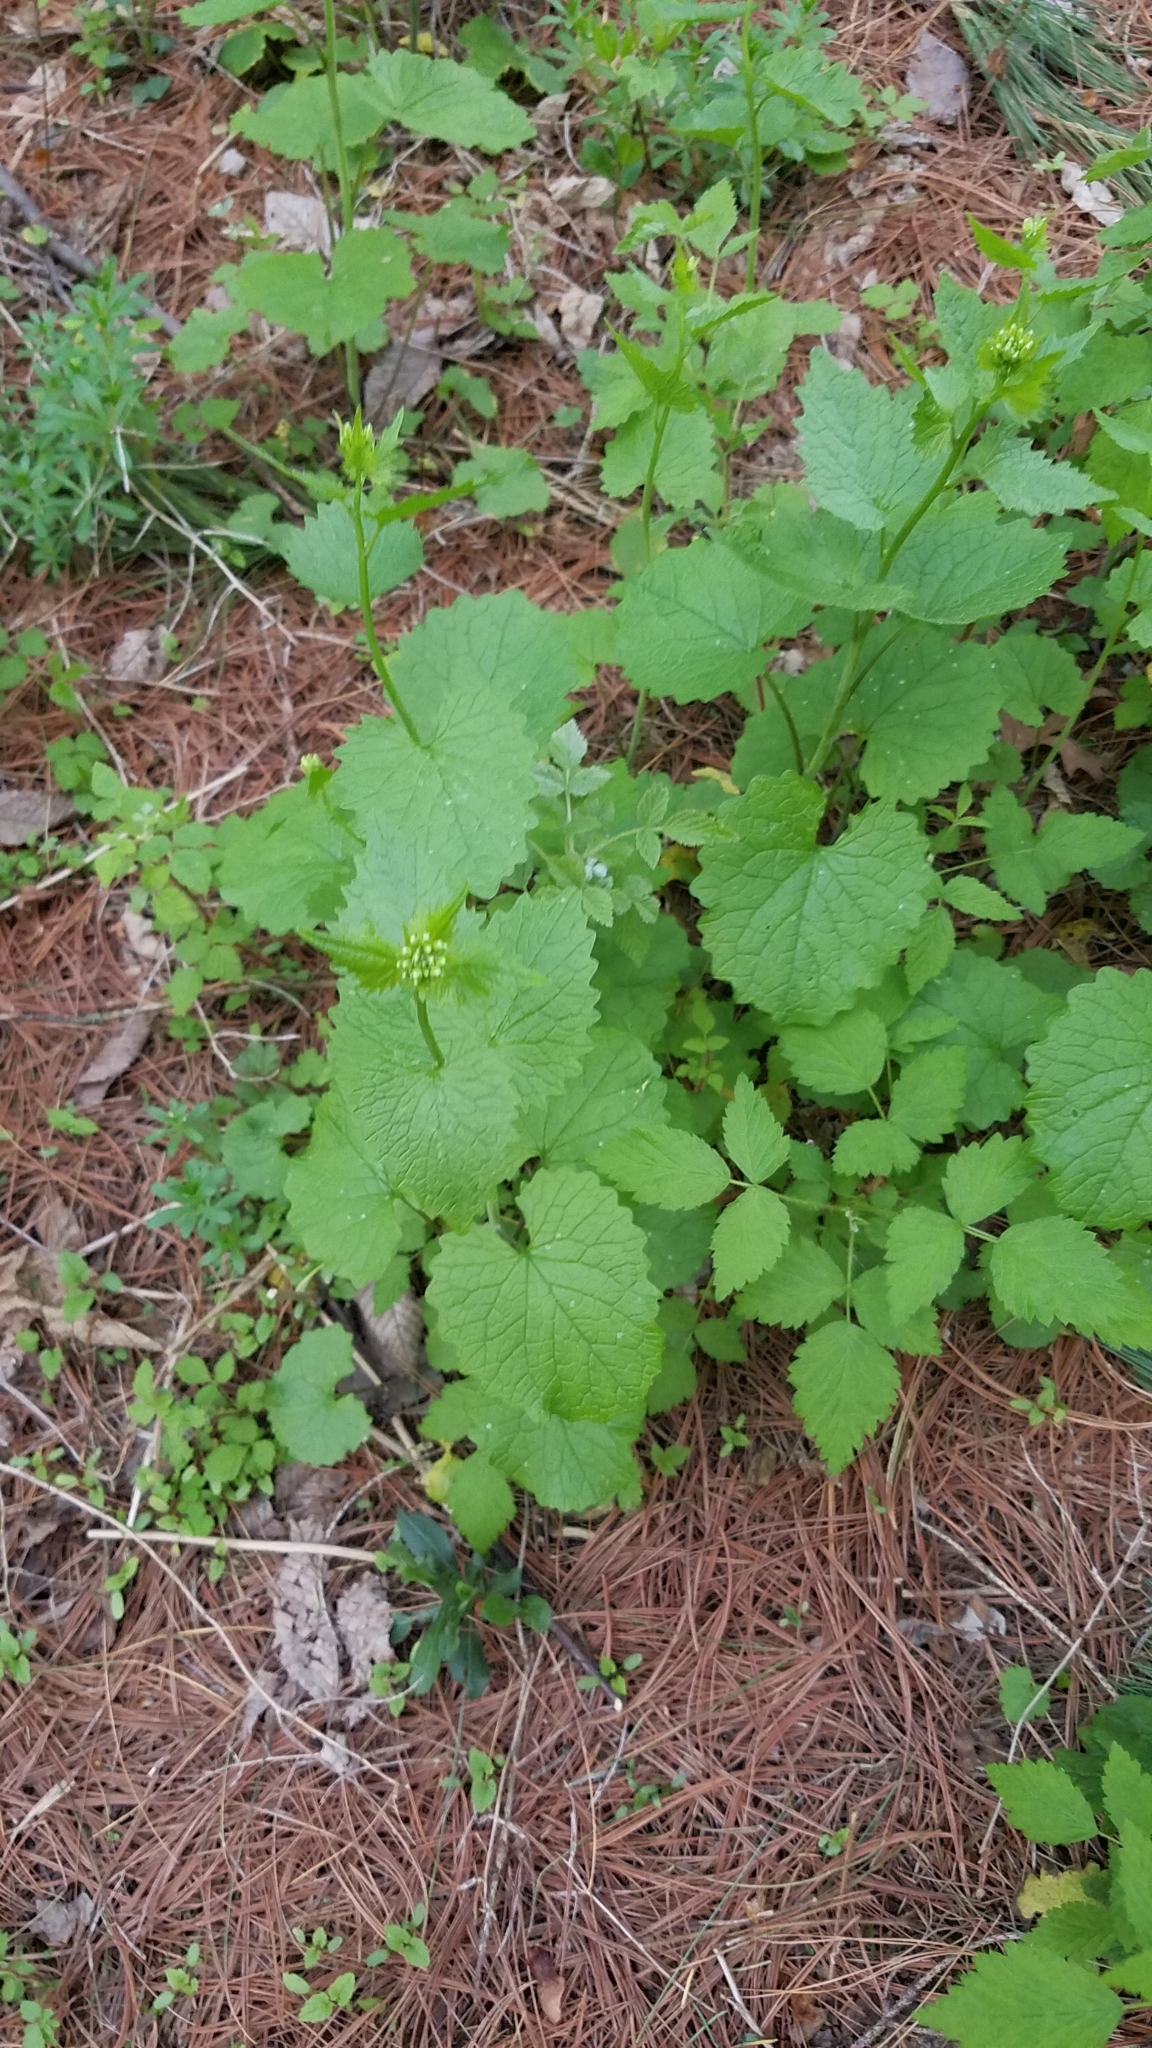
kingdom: Plantae
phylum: Tracheophyta
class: Magnoliopsida
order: Brassicales
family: Brassicaceae
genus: Alliaria
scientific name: Alliaria petiolata
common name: Garlic mustard
